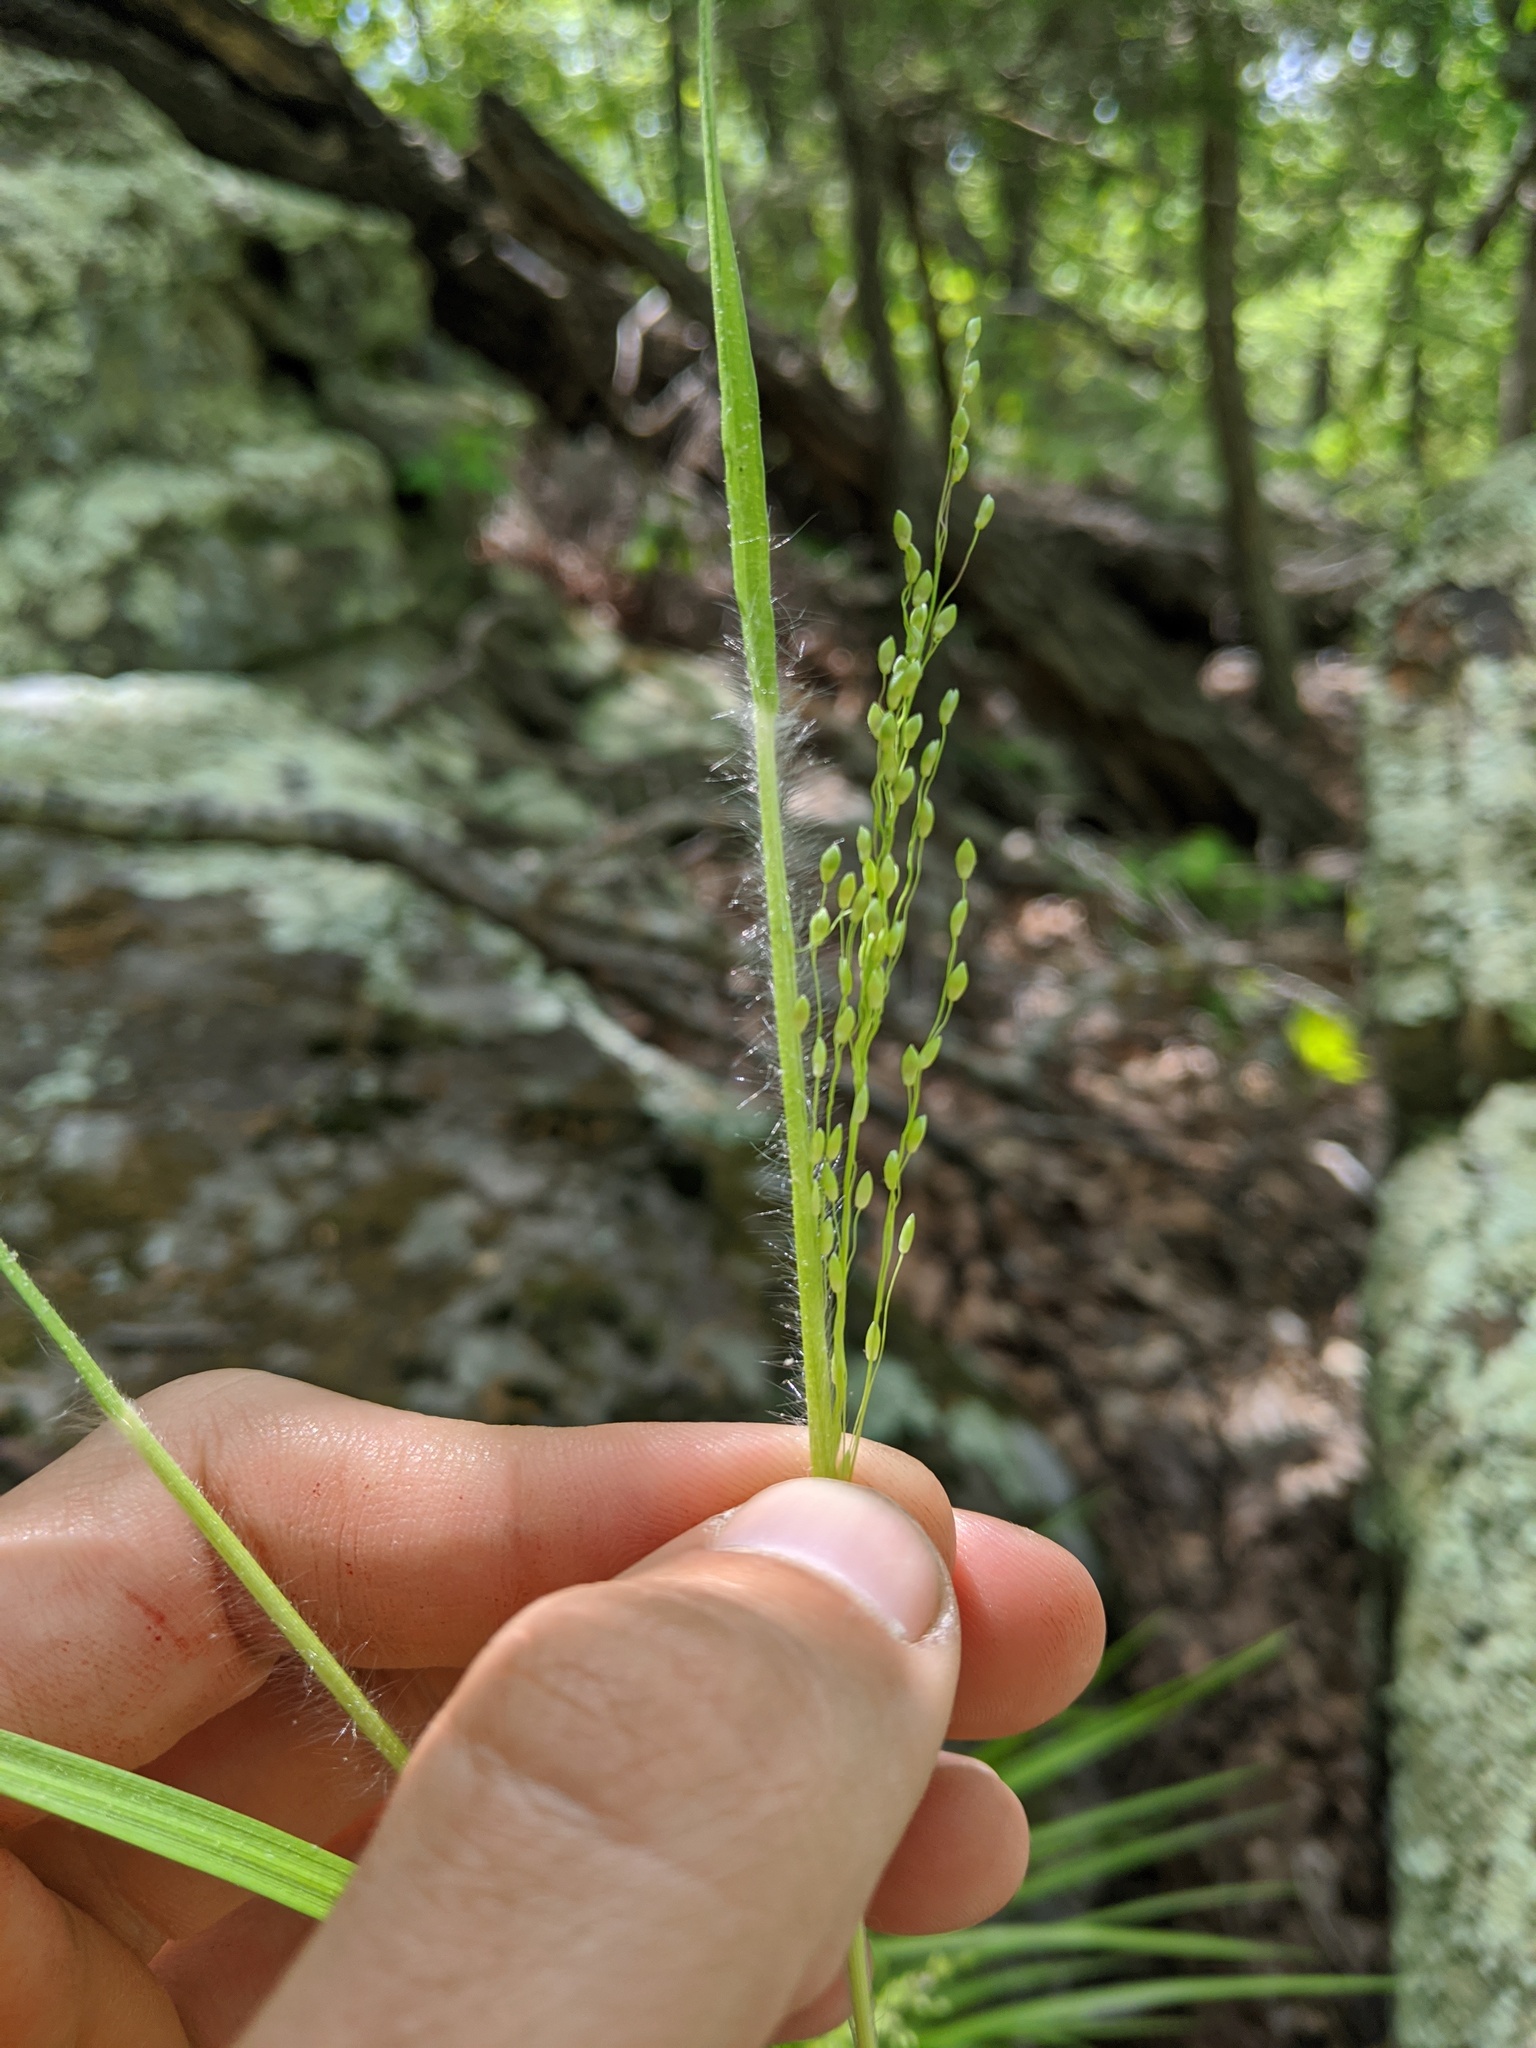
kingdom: Plantae
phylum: Tracheophyta
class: Liliopsida
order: Poales
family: Poaceae
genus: Dichanthelium
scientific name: Dichanthelium linearifolium
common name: Linear-leaved panicgrass
